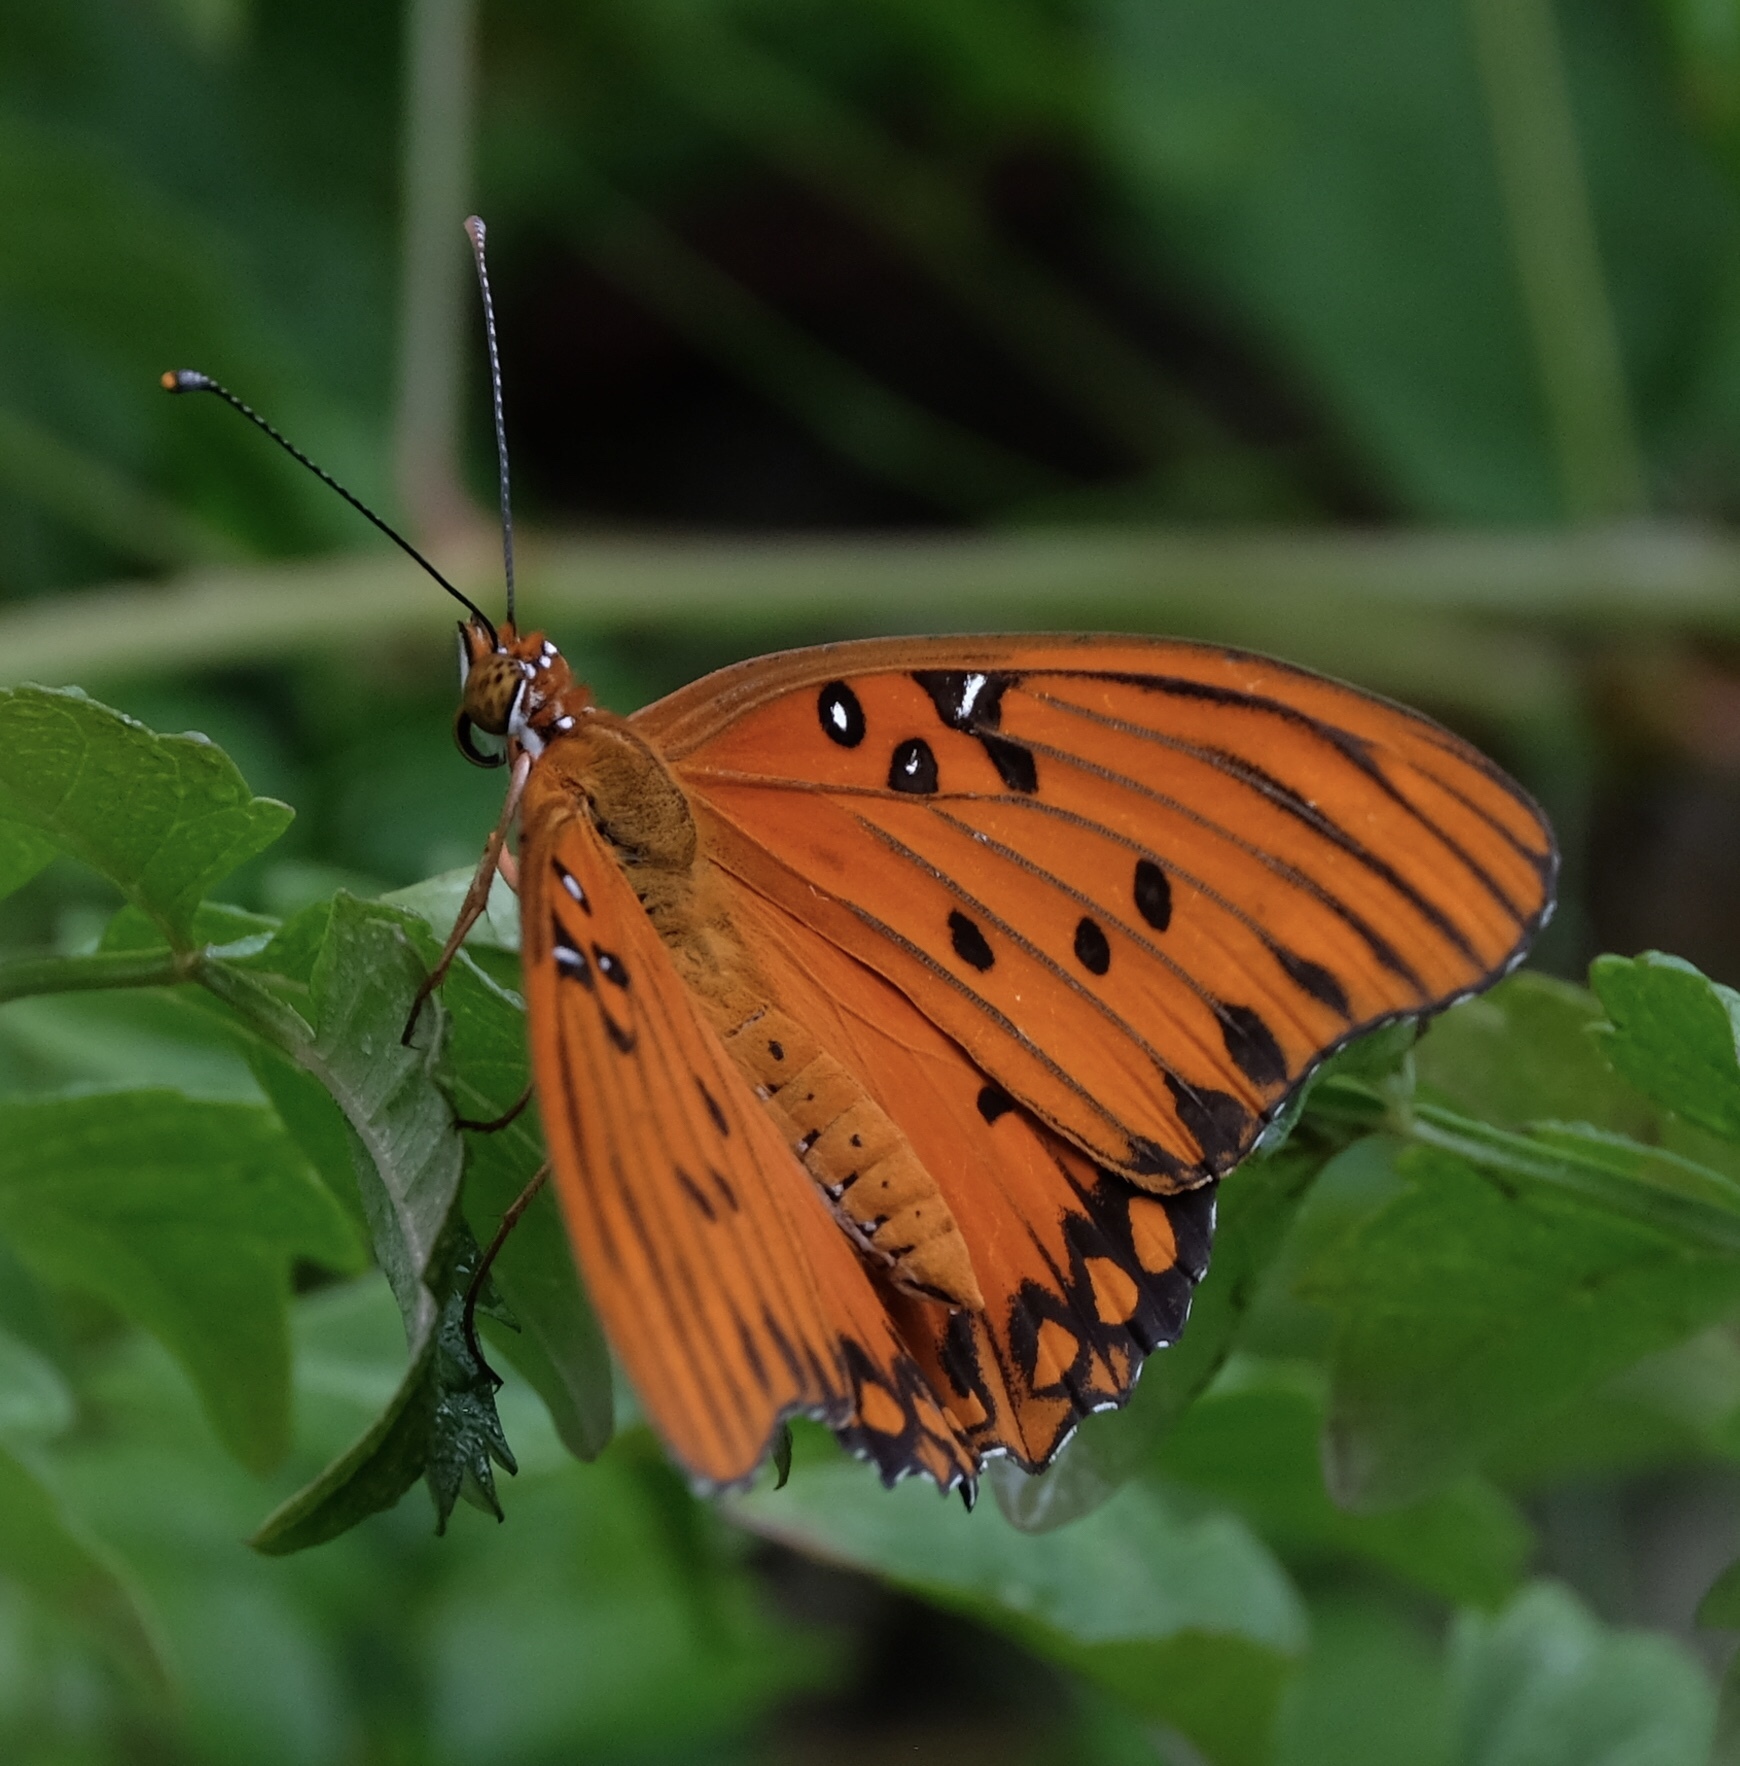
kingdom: Animalia
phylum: Arthropoda
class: Insecta
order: Lepidoptera
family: Nymphalidae
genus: Dione
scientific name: Dione vanillae
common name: Gulf fritillary
